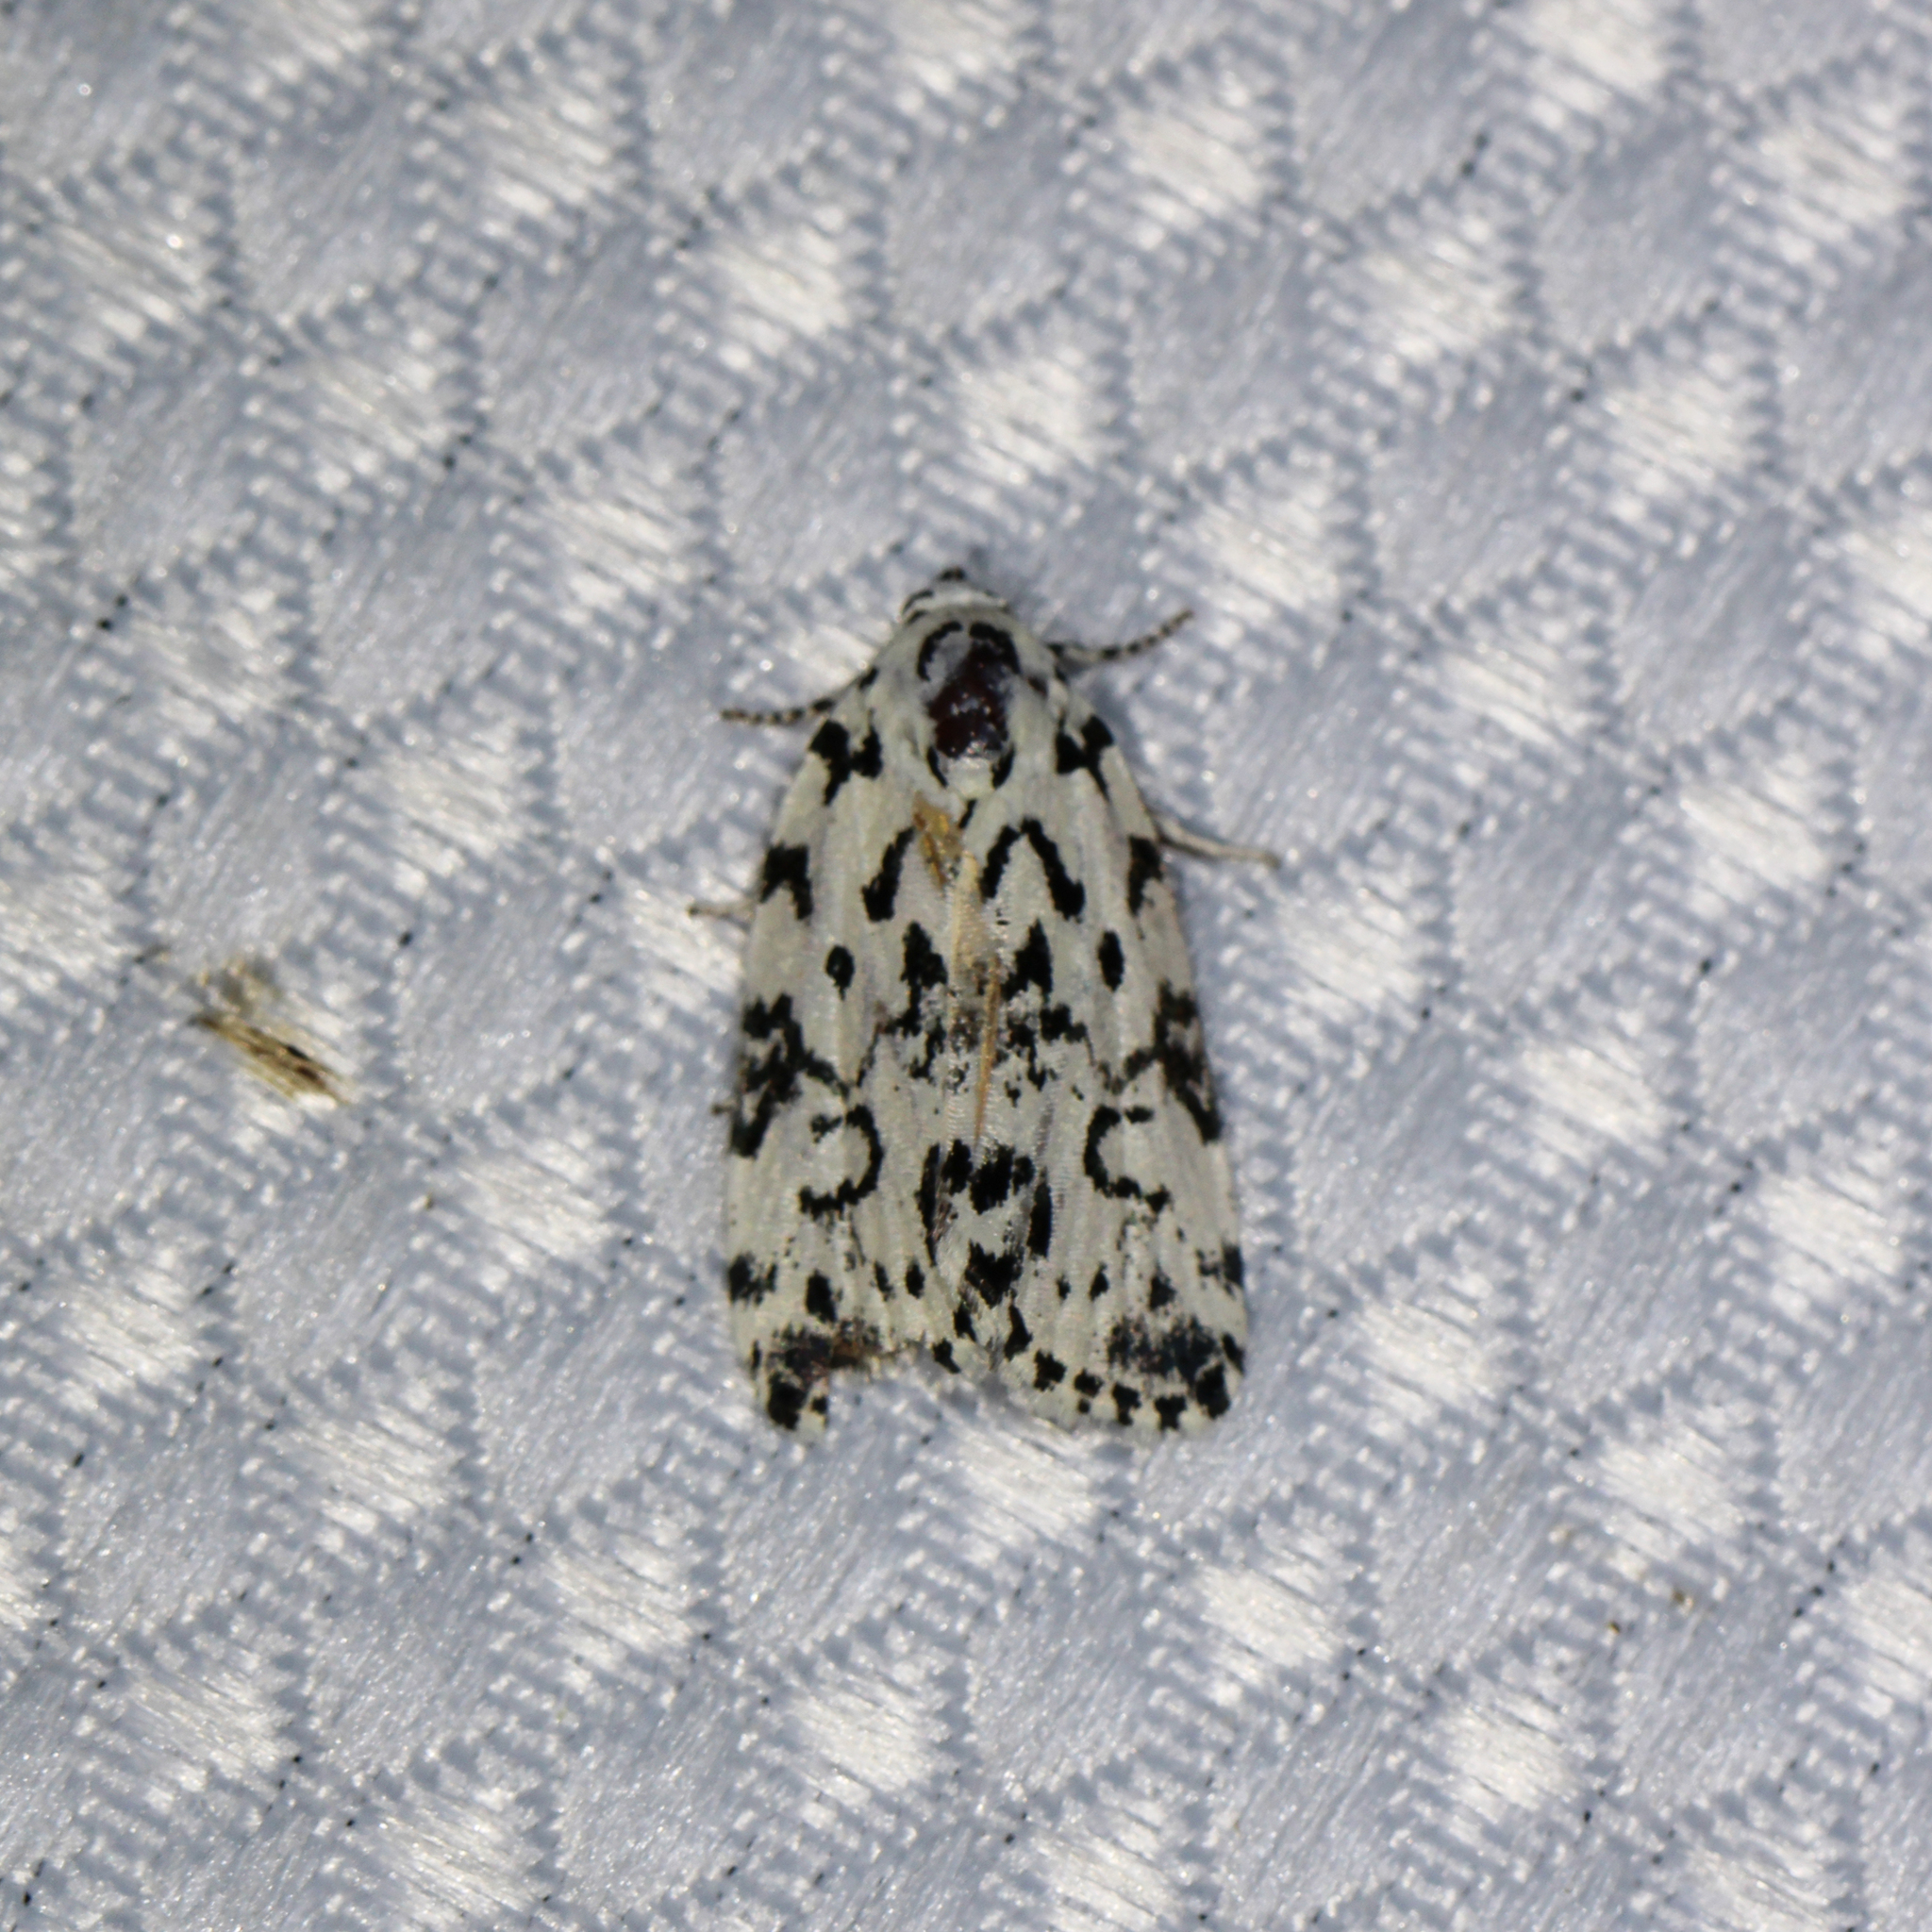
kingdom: Animalia
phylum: Arthropoda
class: Insecta
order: Lepidoptera
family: Noctuidae
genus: Polygrammate
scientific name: Polygrammate hebraeicum
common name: Hebrew moth
